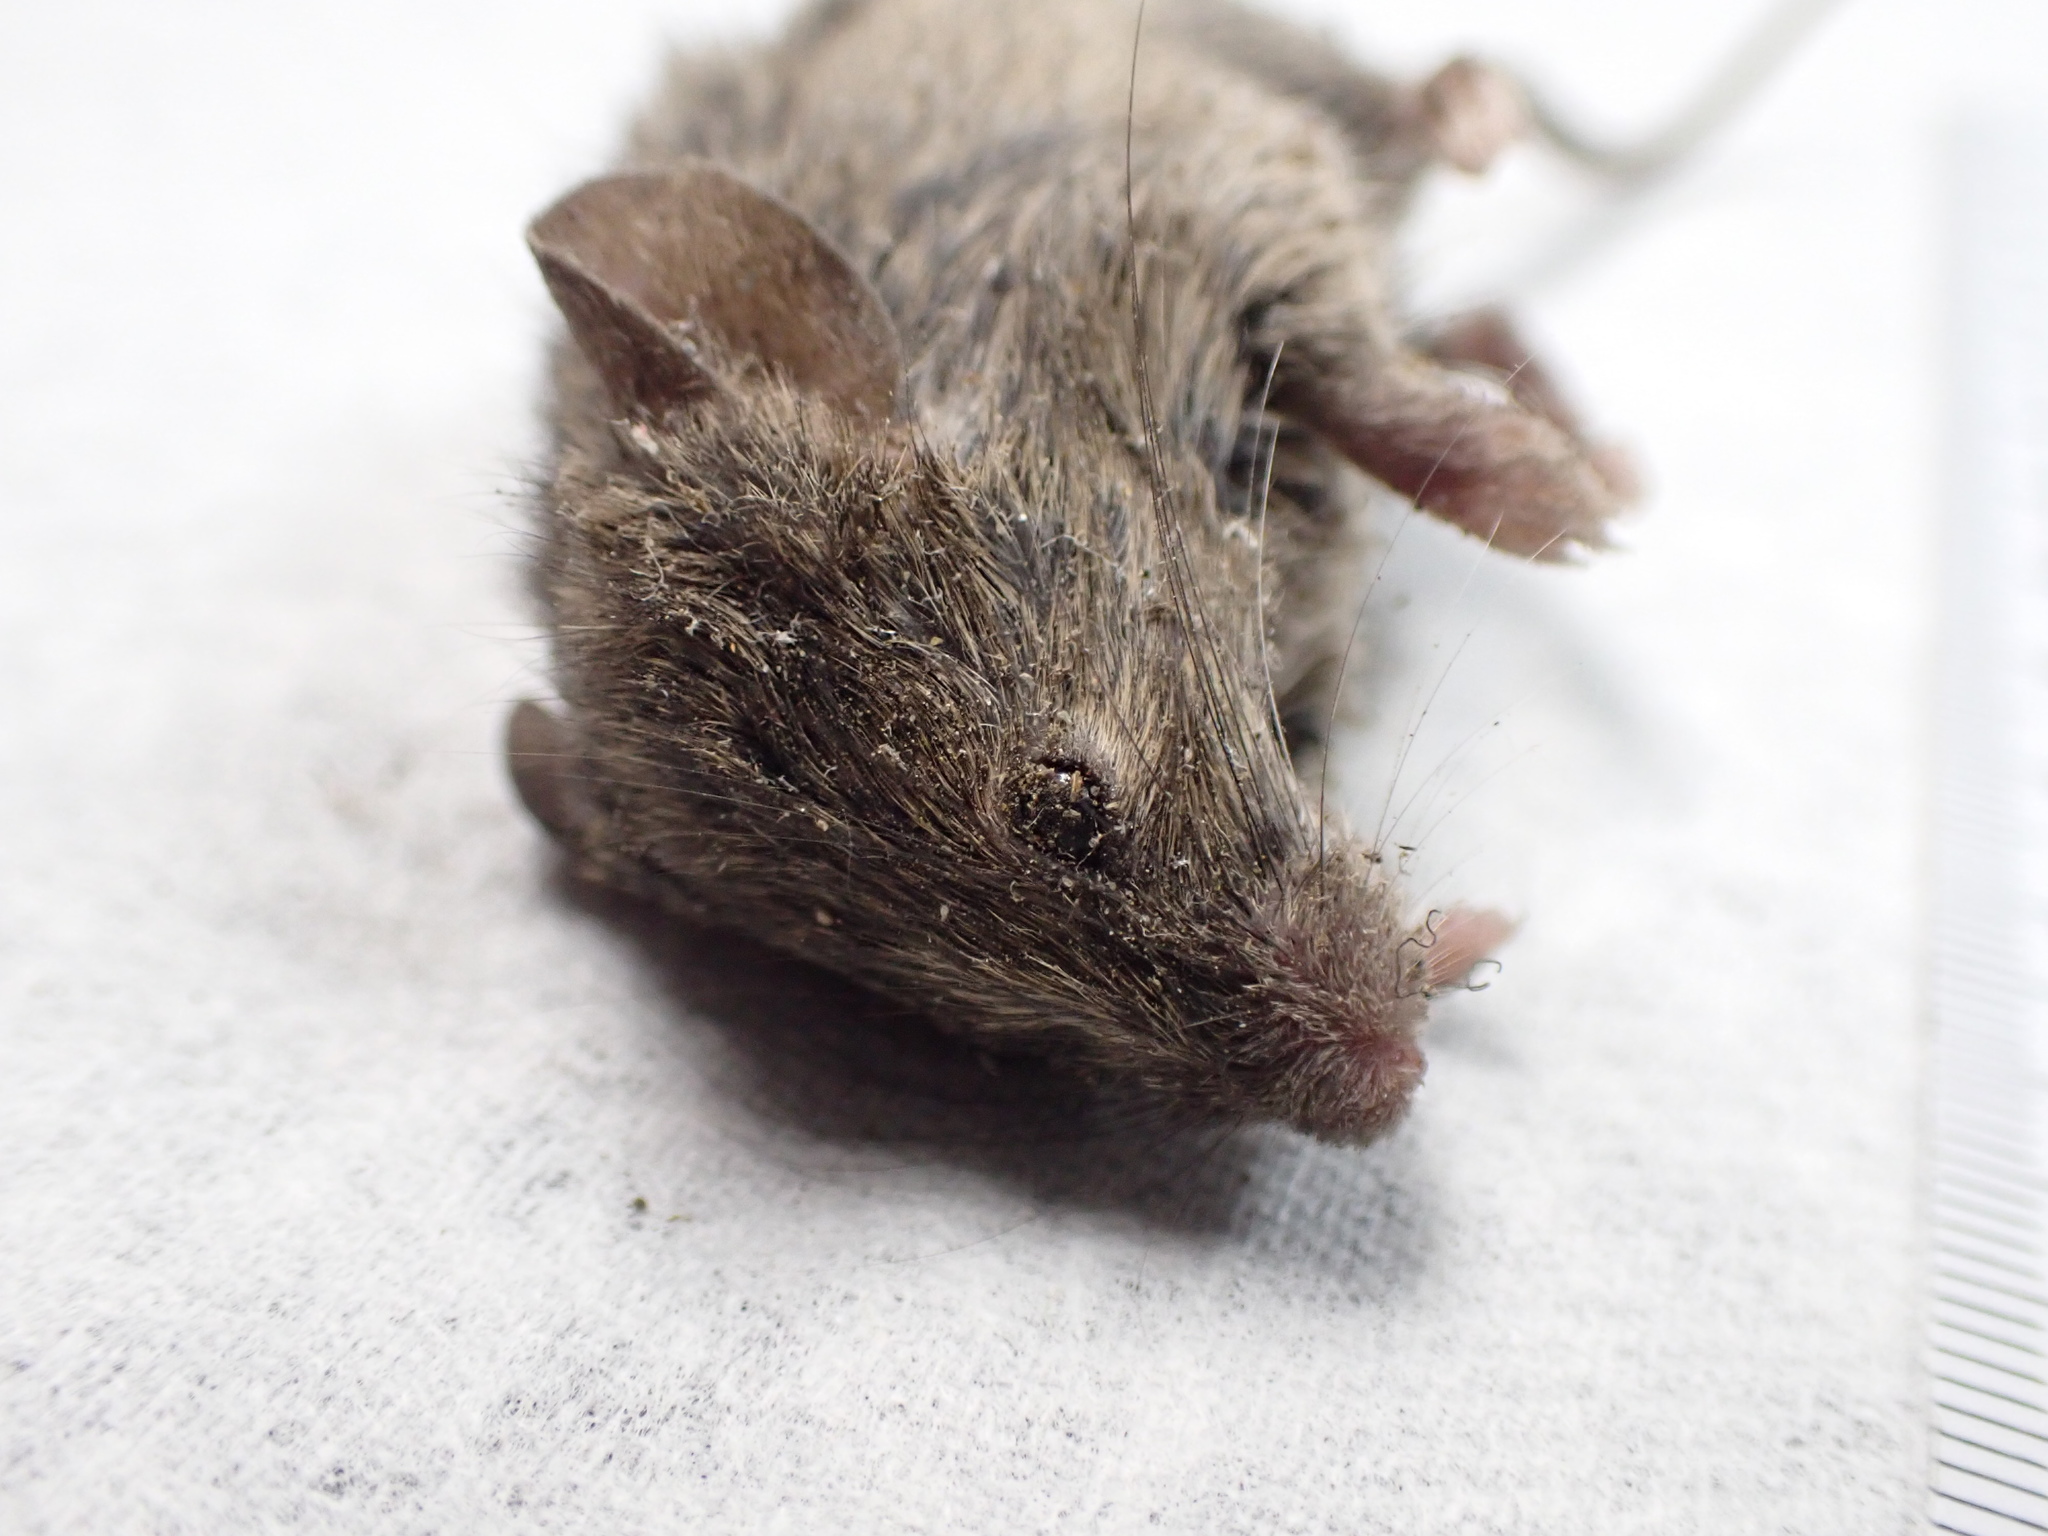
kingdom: Animalia
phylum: Chordata
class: Mammalia
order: Rodentia
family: Muridae
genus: Mus
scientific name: Mus musculus
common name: House mouse
